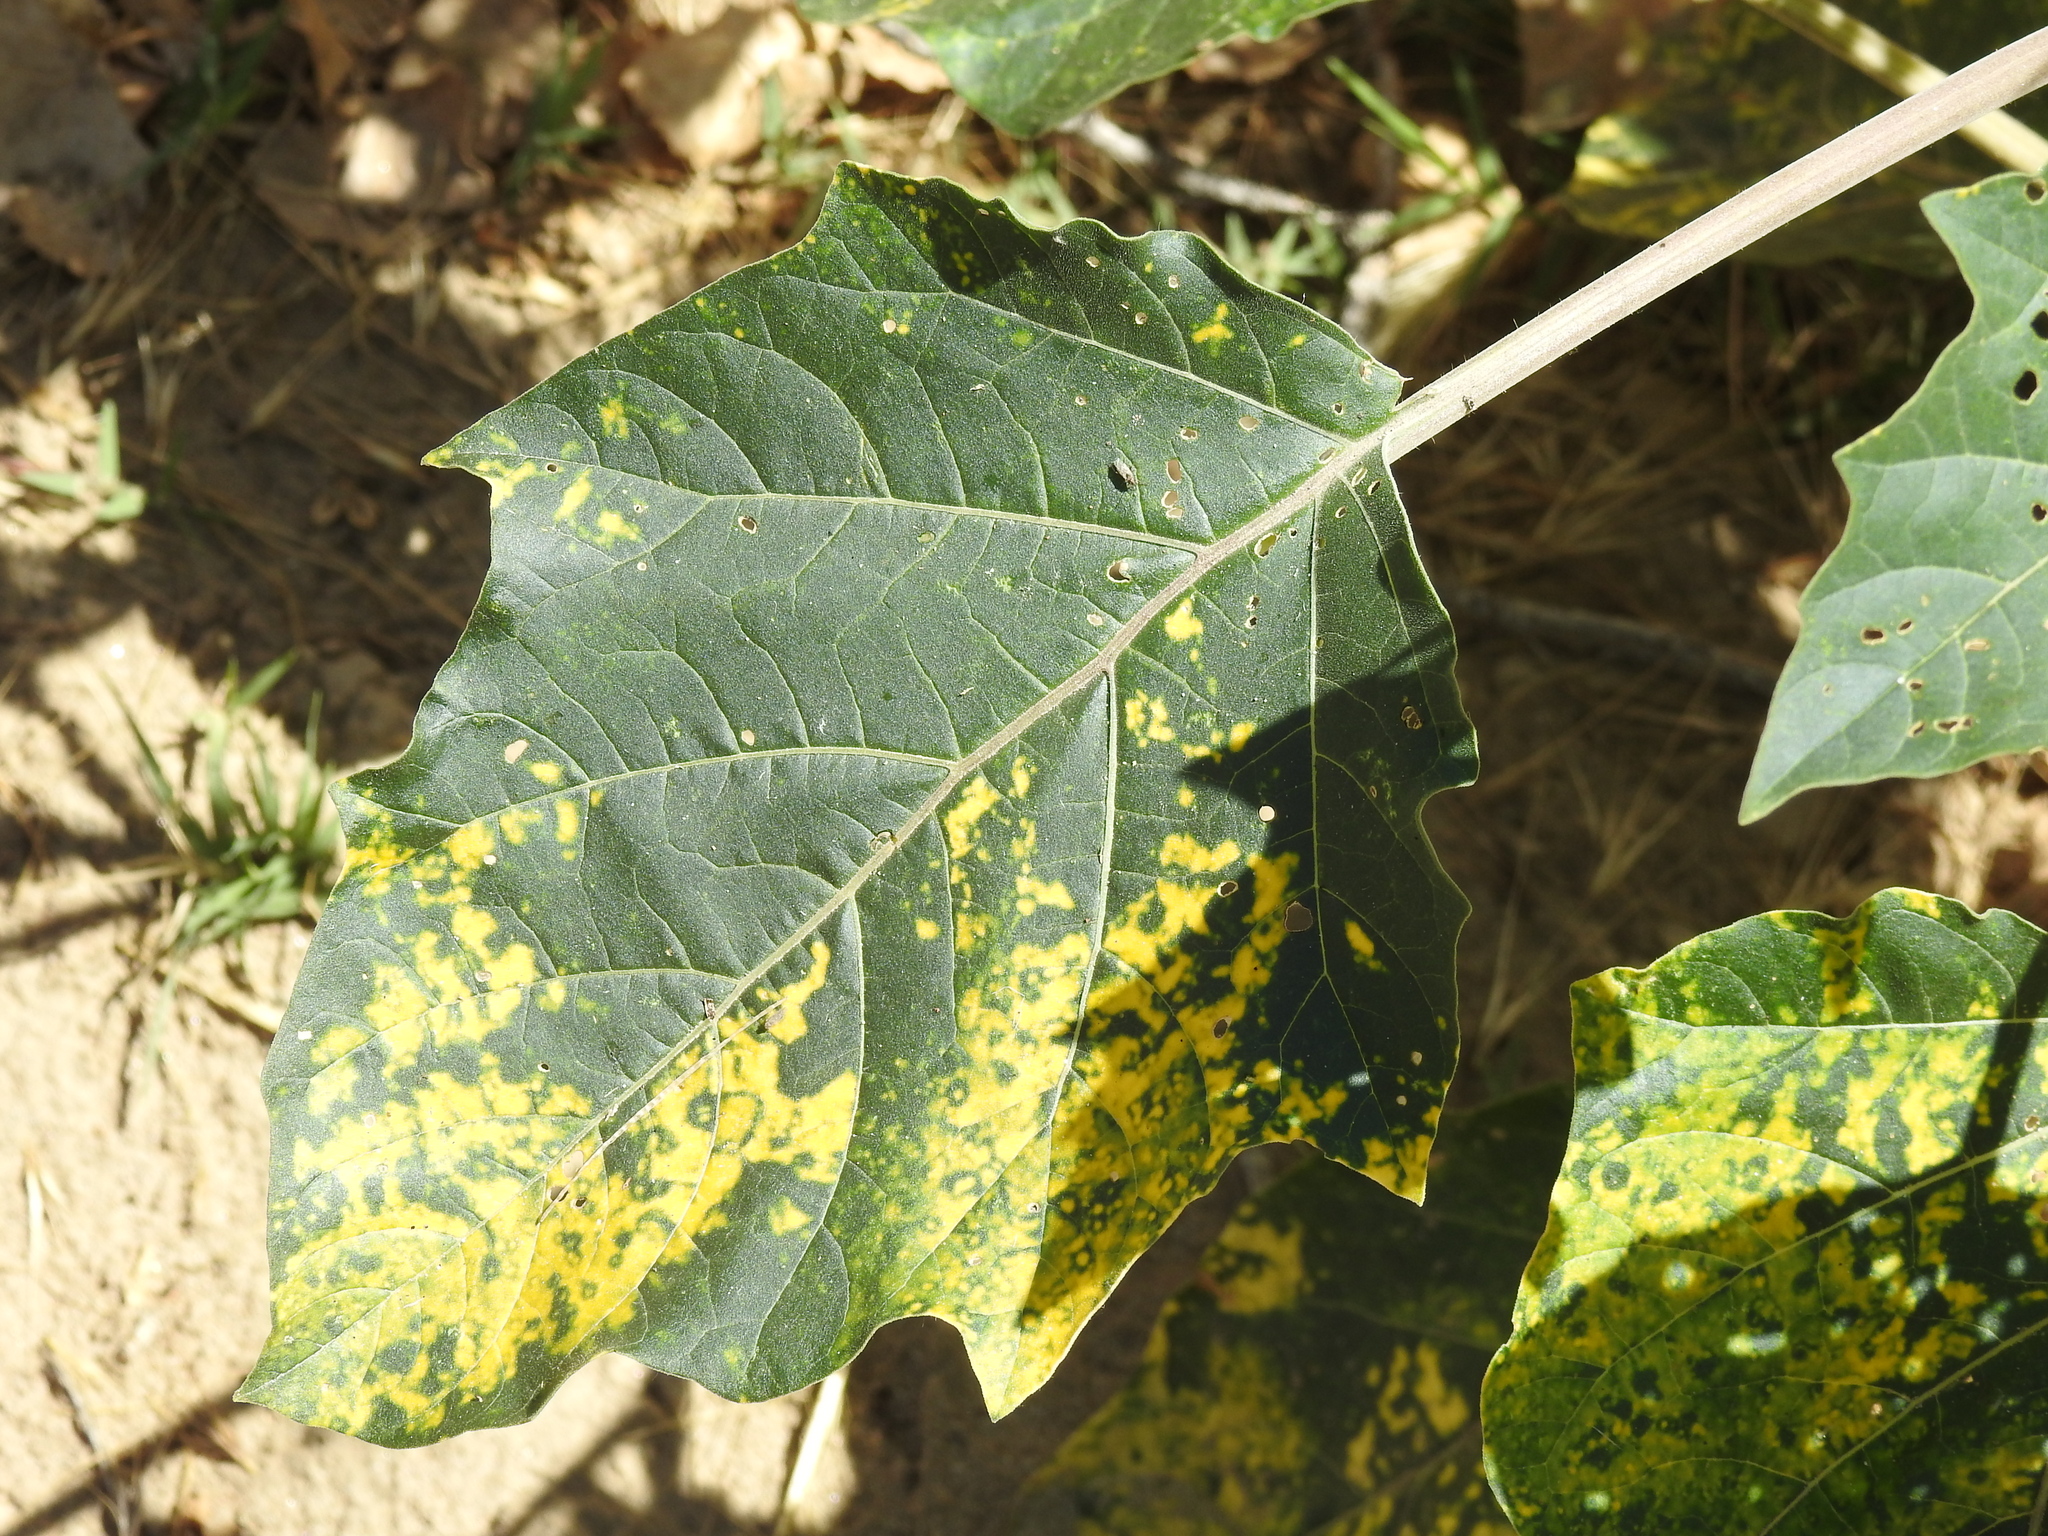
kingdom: Plantae
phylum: Tracheophyta
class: Magnoliopsida
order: Solanales
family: Solanaceae
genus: Datura
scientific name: Datura wrightii
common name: Sacred thorn-apple
